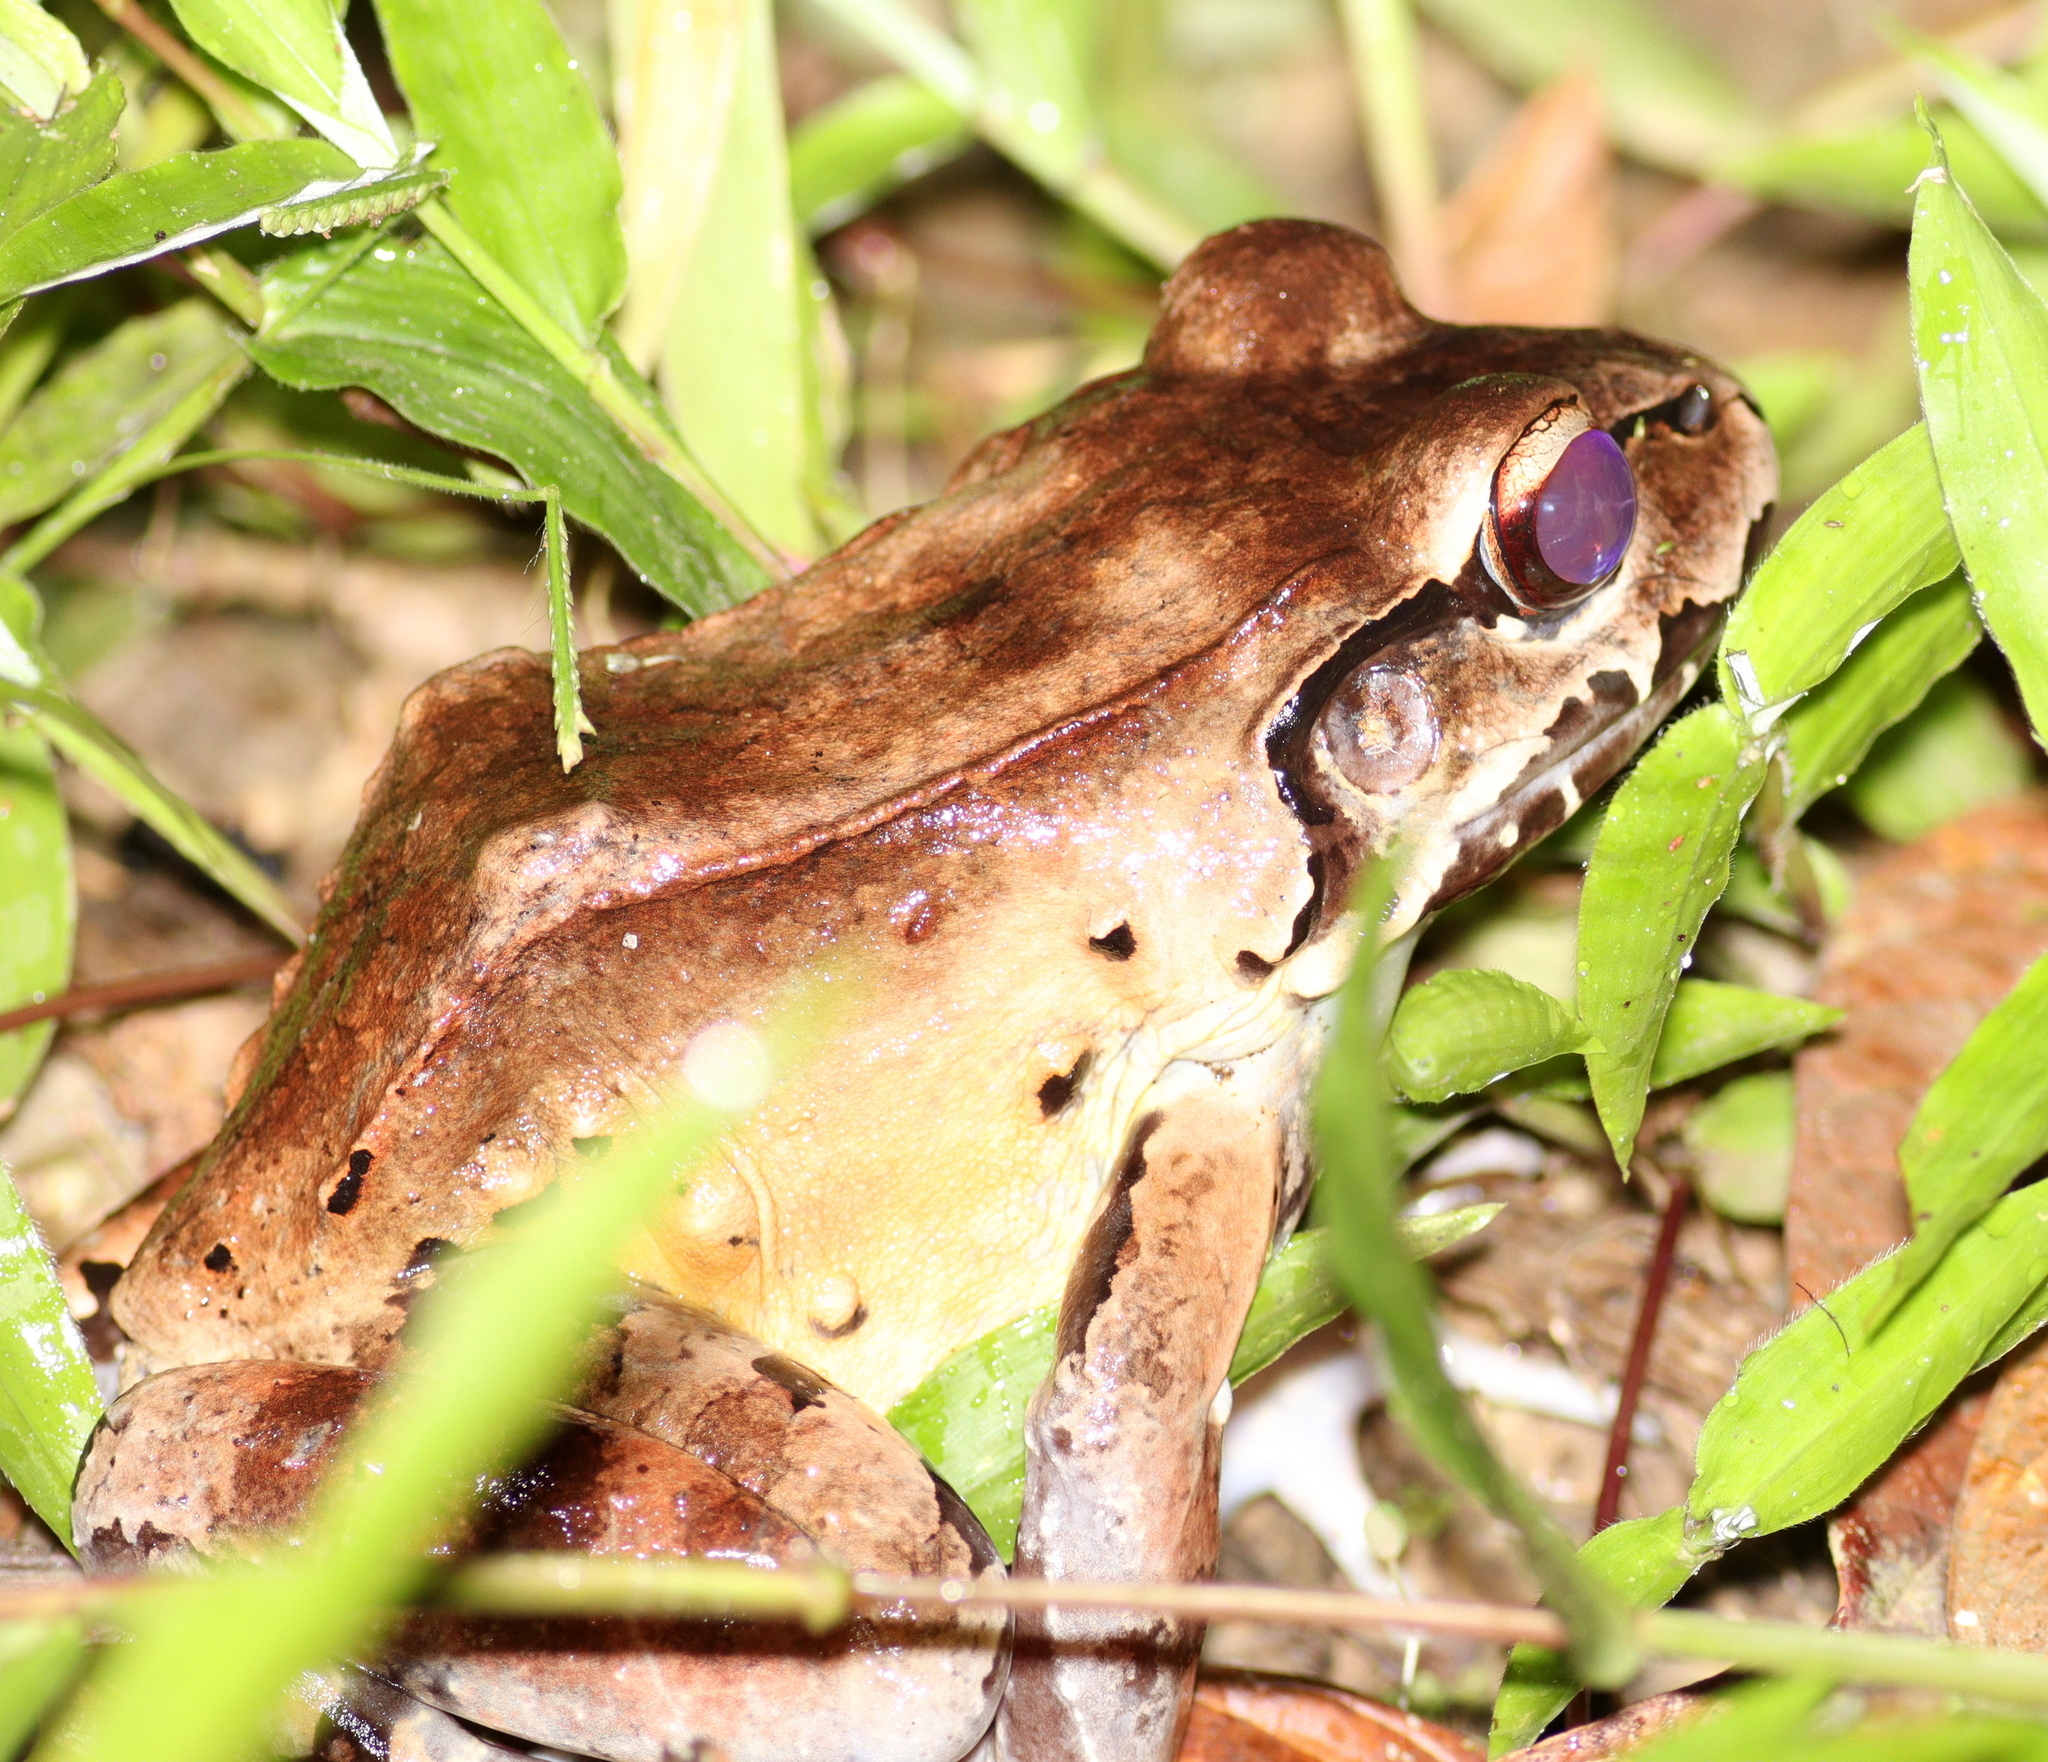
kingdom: Animalia
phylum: Chordata
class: Amphibia
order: Anura
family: Leptodactylidae
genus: Leptodactylus
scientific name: Leptodactylus savagei
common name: Savage's thin-toed frog
